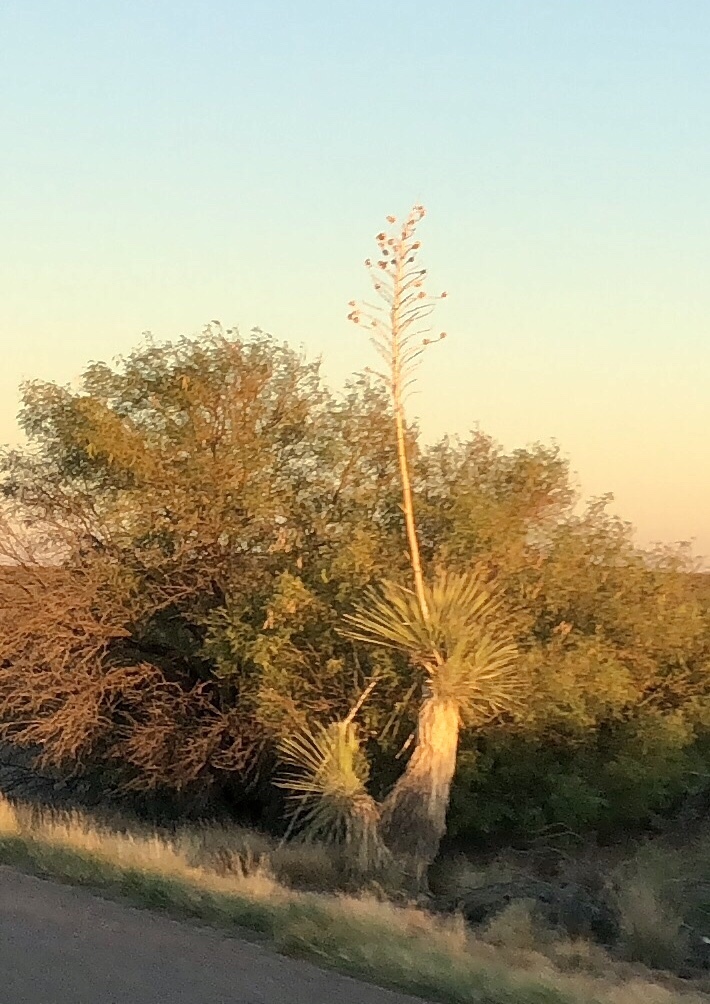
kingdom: Plantae
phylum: Tracheophyta
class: Liliopsida
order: Asparagales
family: Asparagaceae
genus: Yucca
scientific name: Yucca elata
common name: Palmella
